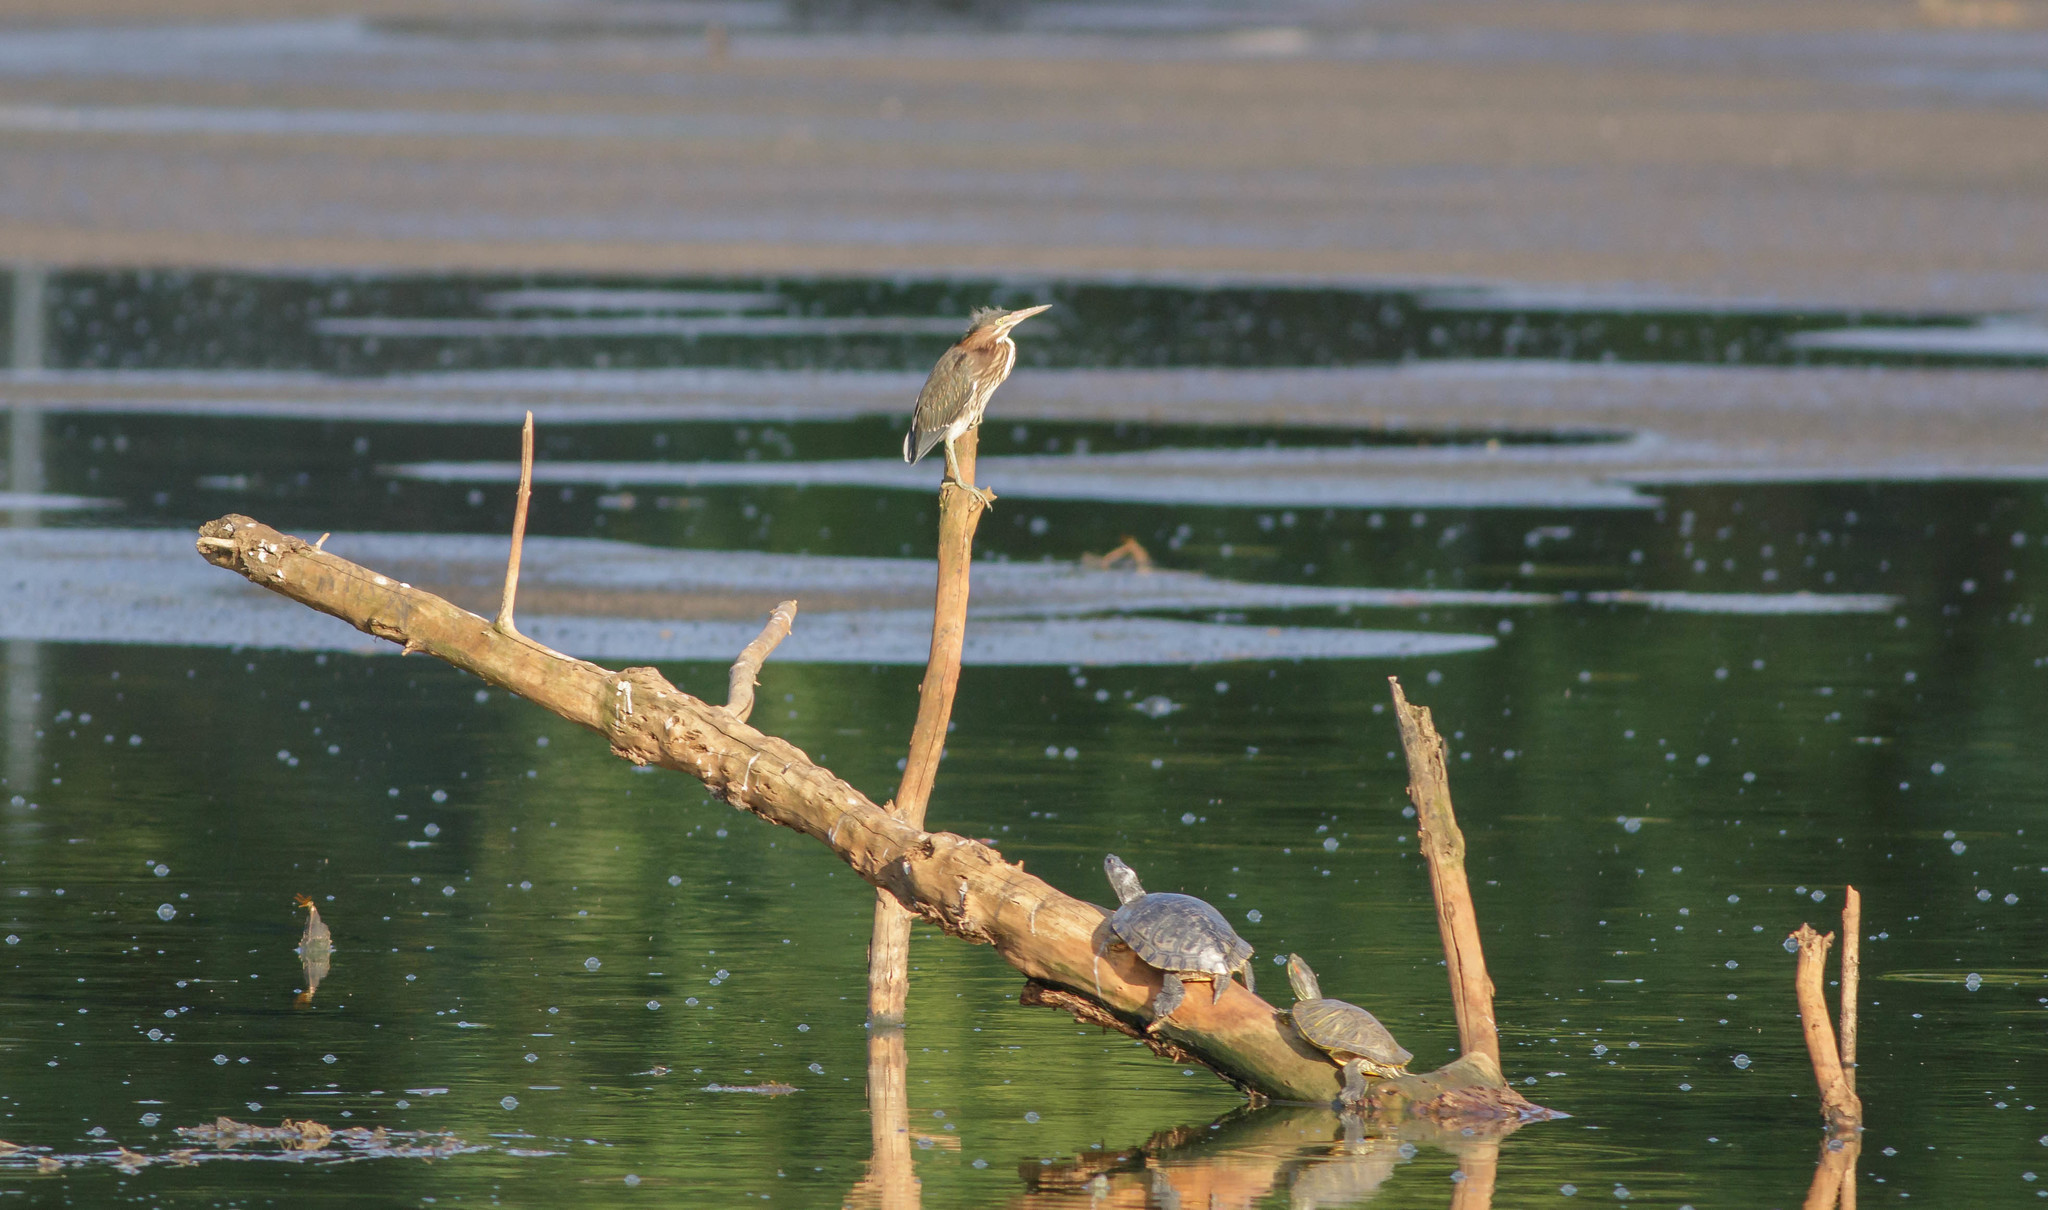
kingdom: Animalia
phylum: Chordata
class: Aves
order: Pelecaniformes
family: Ardeidae
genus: Butorides
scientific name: Butorides virescens
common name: Green heron
